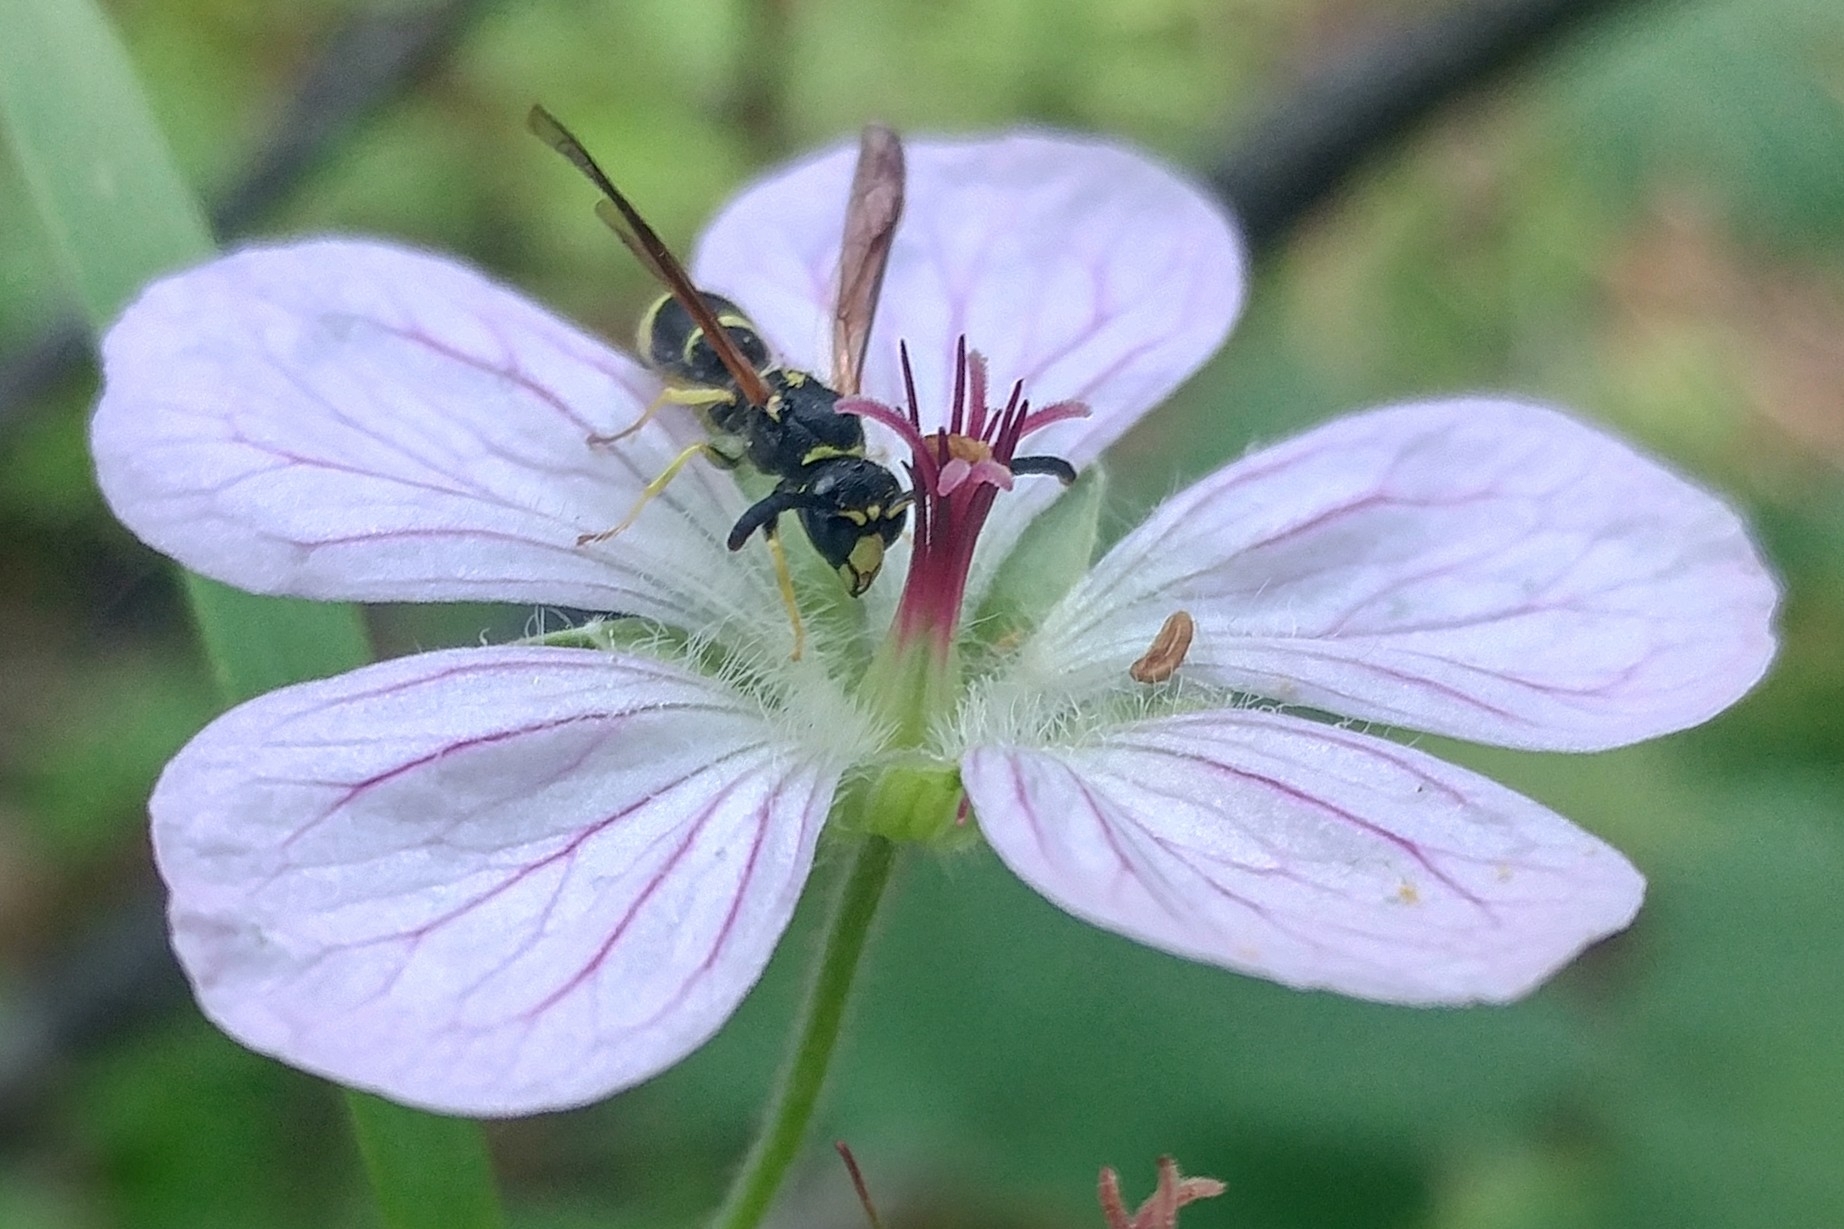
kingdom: Animalia
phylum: Arthropoda
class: Insecta
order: Hymenoptera
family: Vespidae
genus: Ancistrocerus
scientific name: Ancistrocerus
